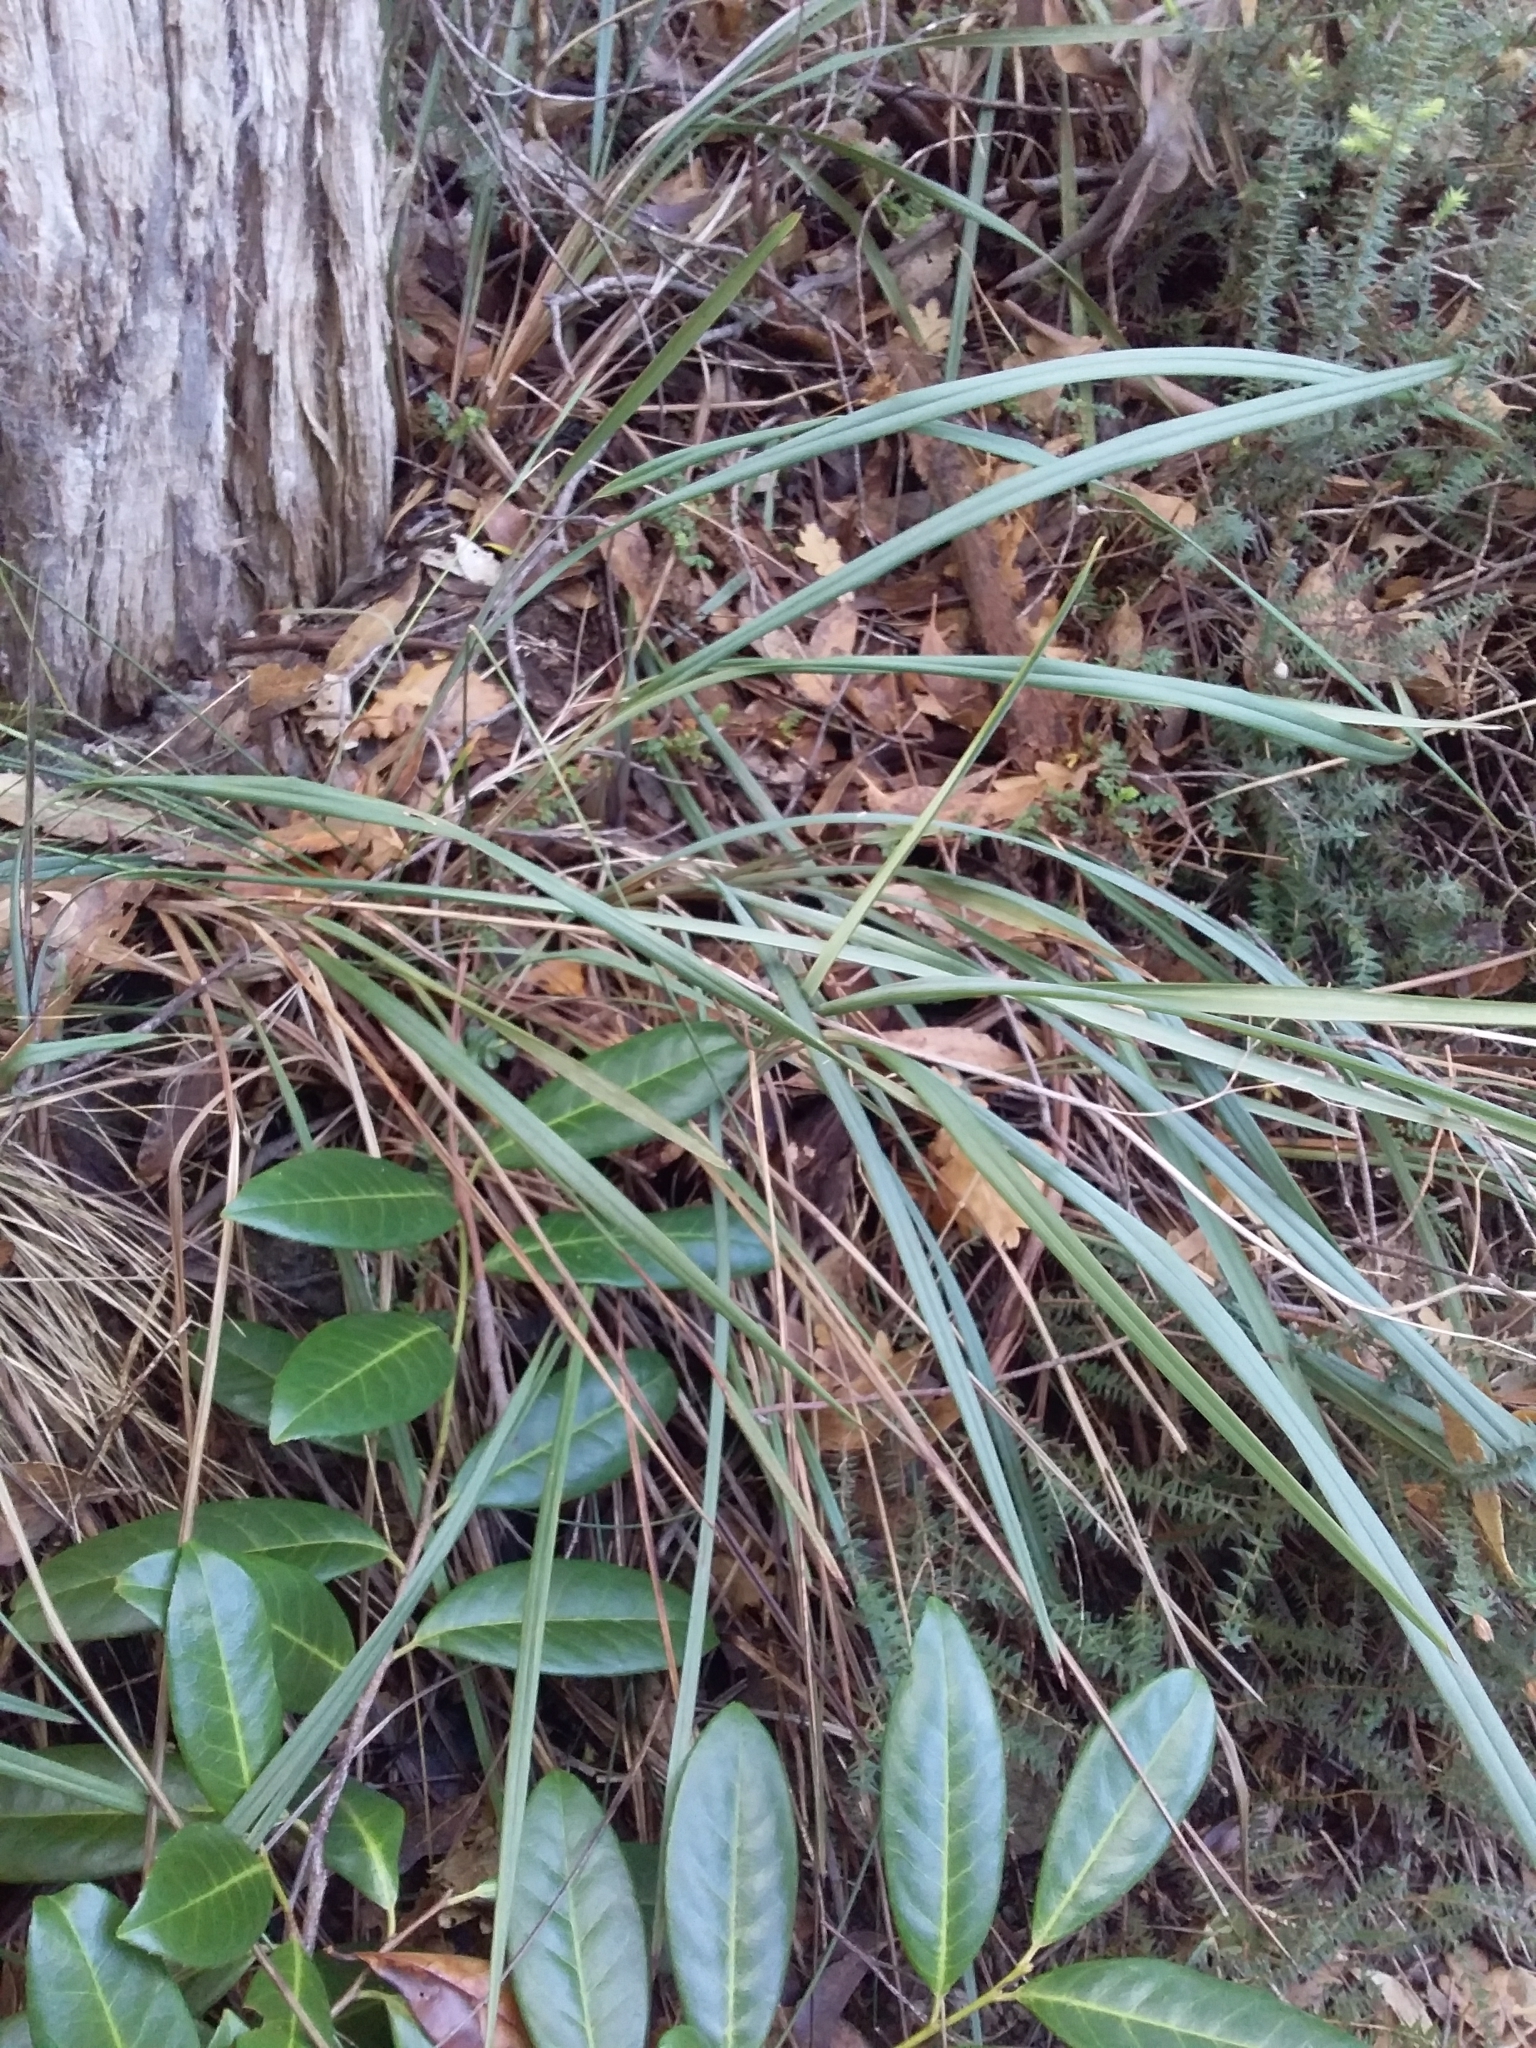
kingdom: Plantae
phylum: Tracheophyta
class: Liliopsida
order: Asparagales
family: Asphodelaceae
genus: Dianella
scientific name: Dianella revoluta
